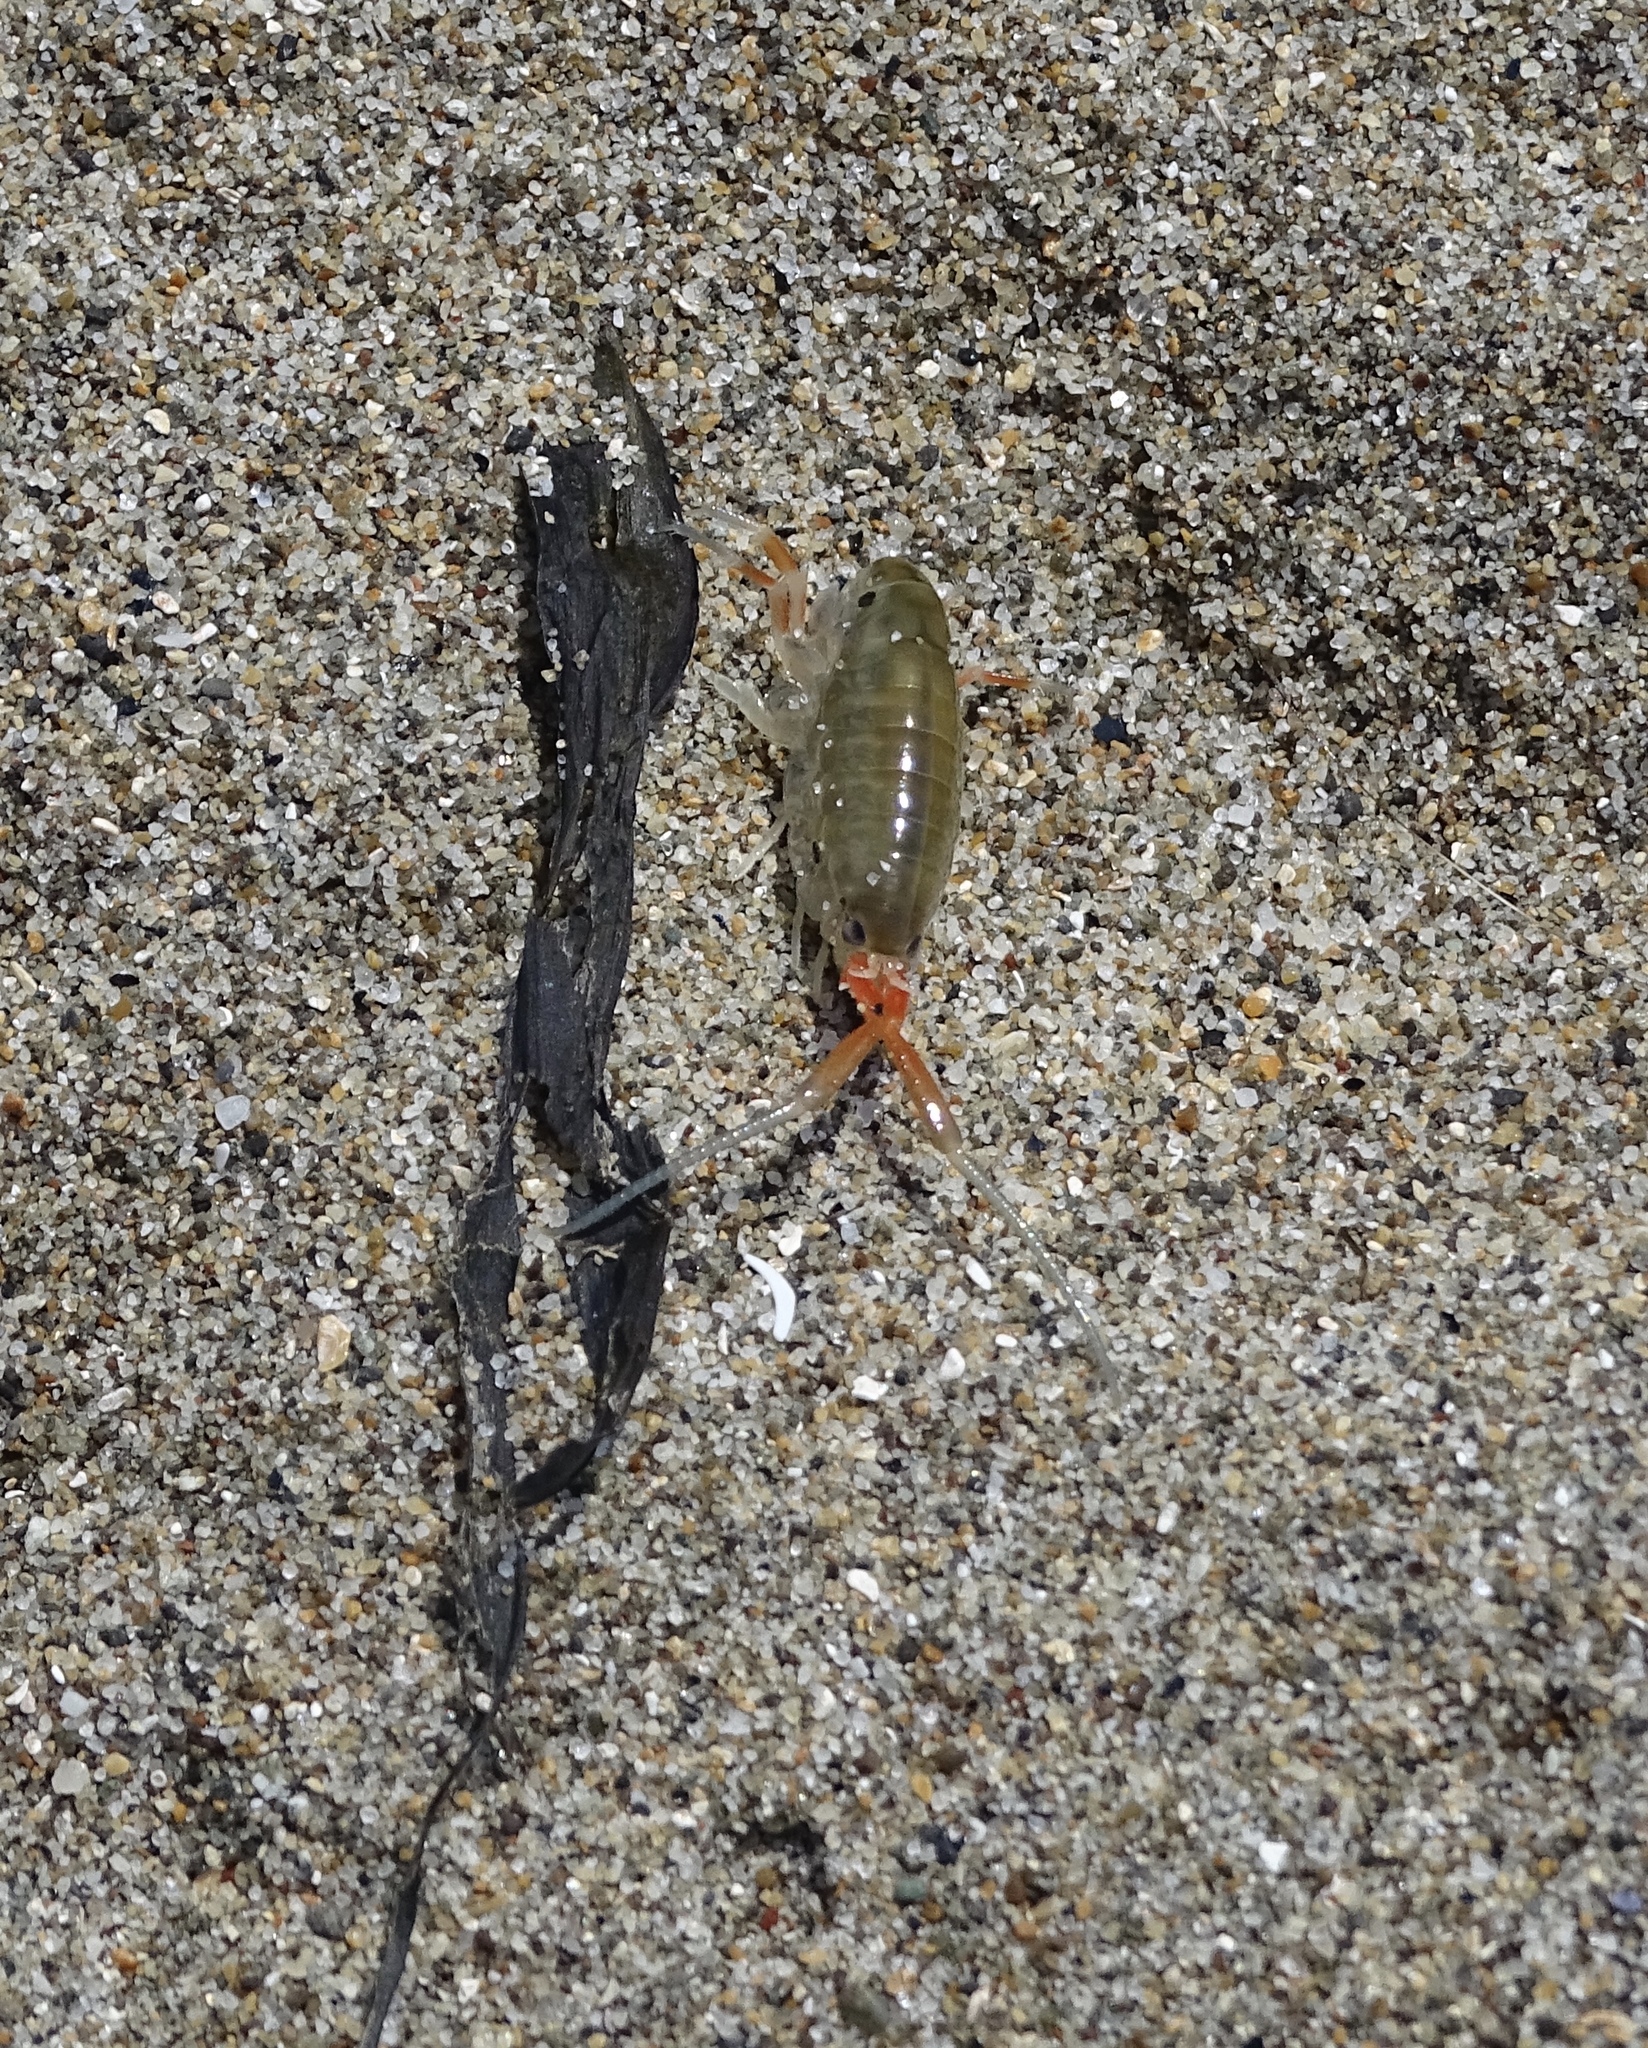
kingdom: Animalia
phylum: Arthropoda
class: Malacostraca
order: Amphipoda
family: Talitridae
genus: Megalorchestia
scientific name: Megalorchestia californiana
